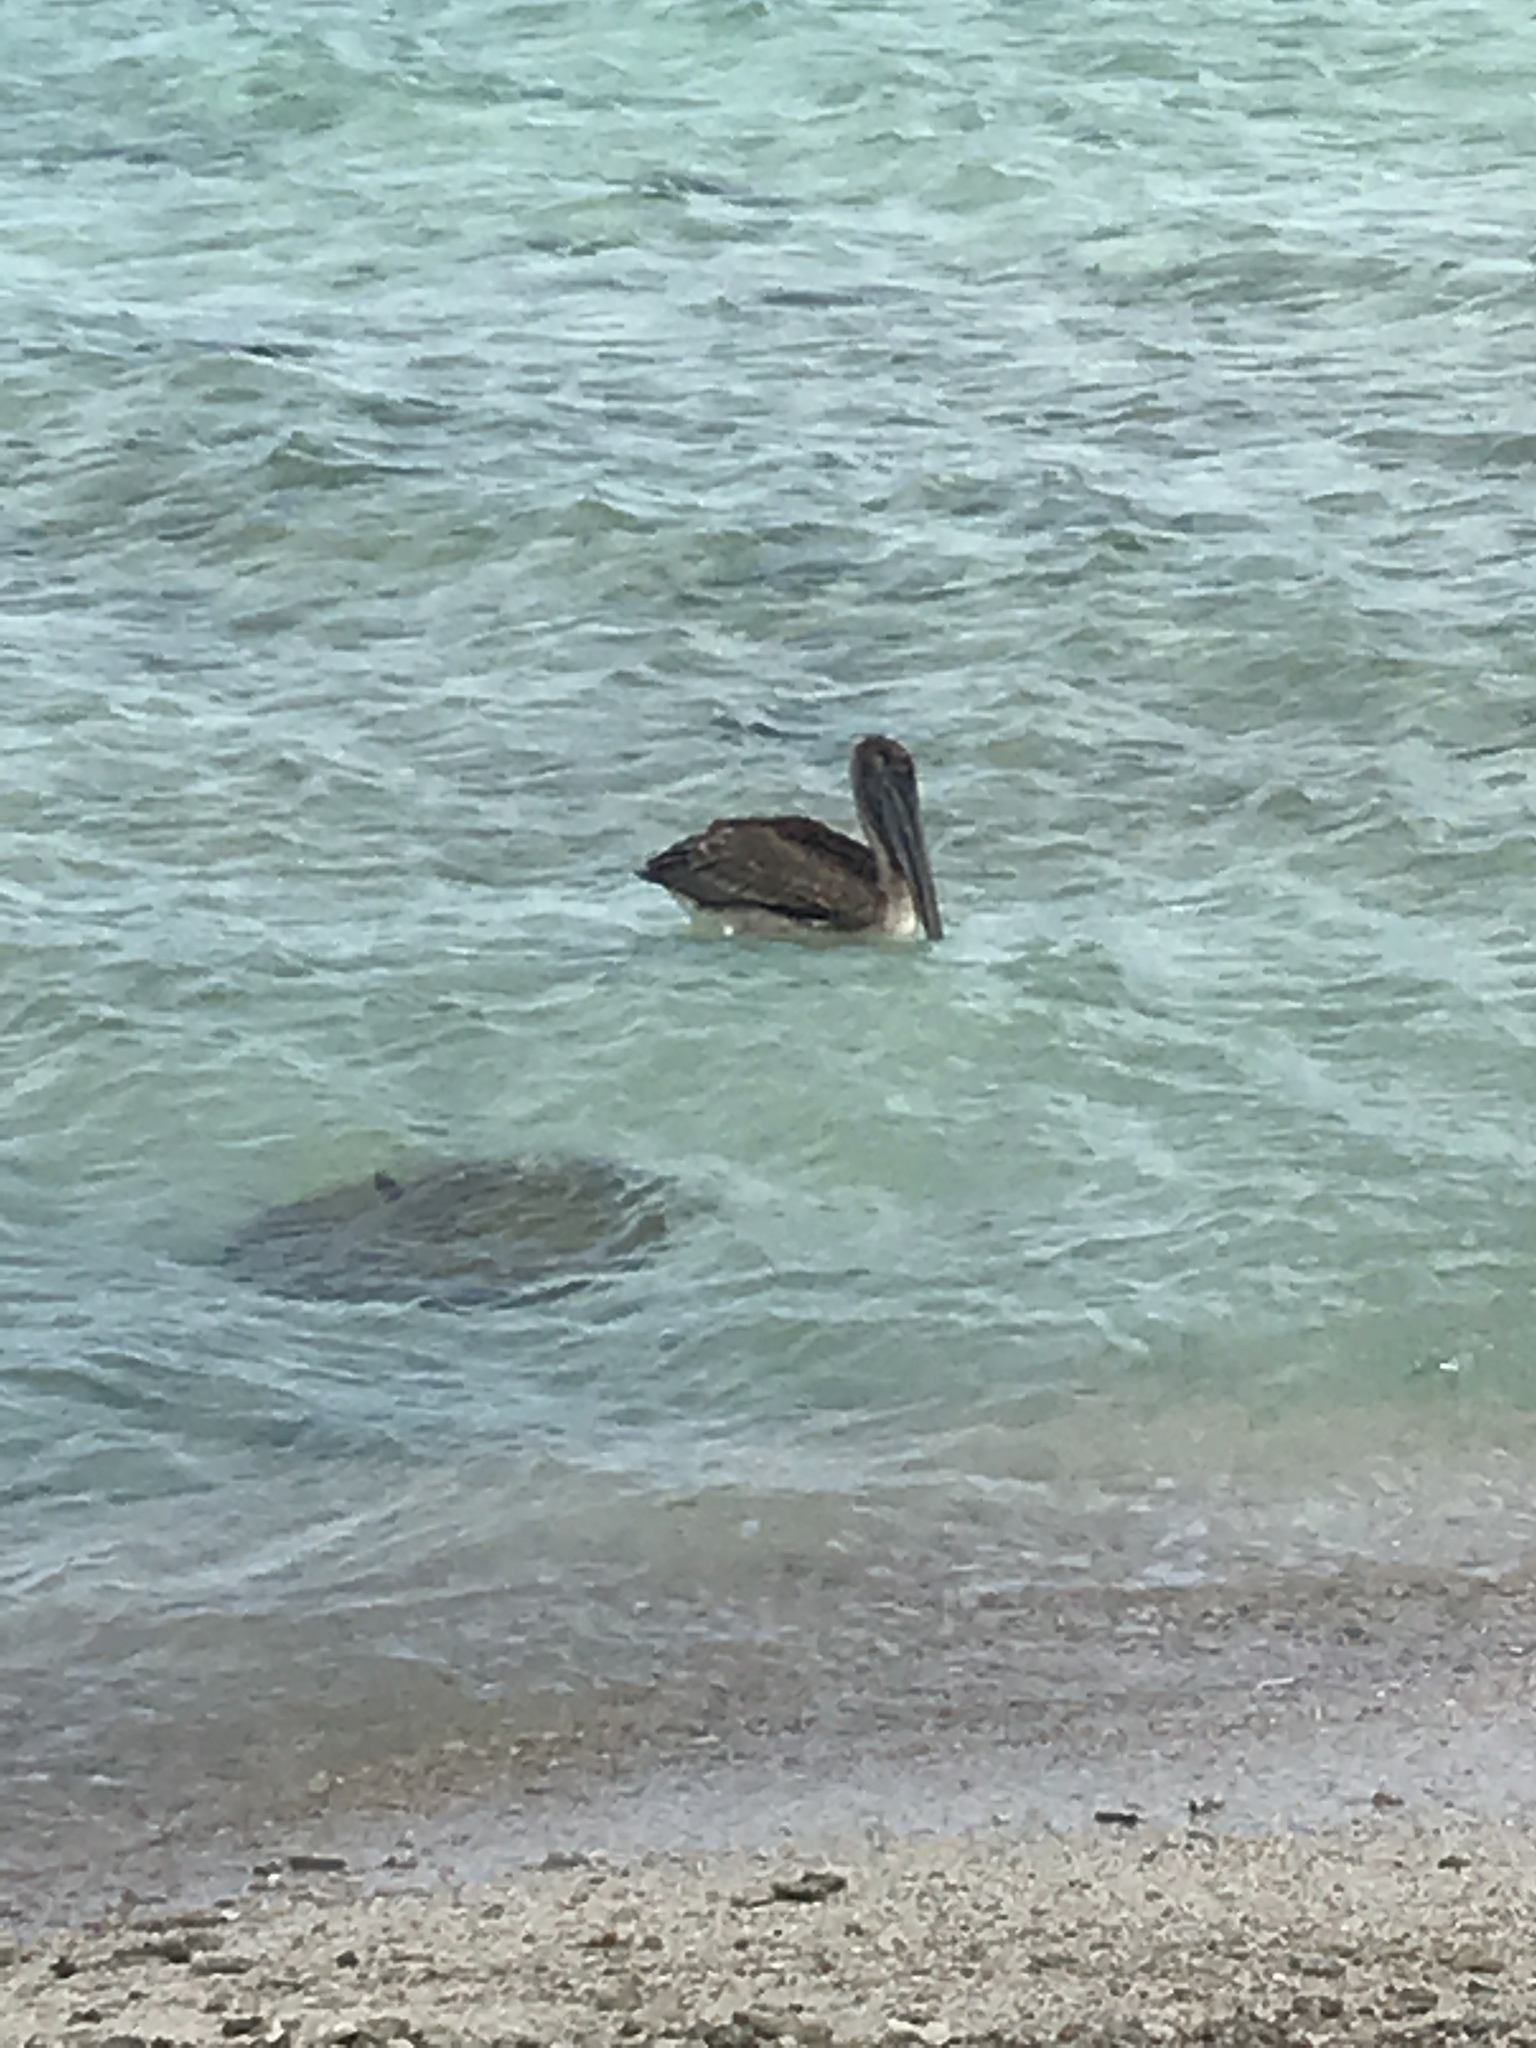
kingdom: Animalia
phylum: Chordata
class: Aves
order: Pelecaniformes
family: Pelecanidae
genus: Pelecanus
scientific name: Pelecanus occidentalis
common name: Brown pelican
